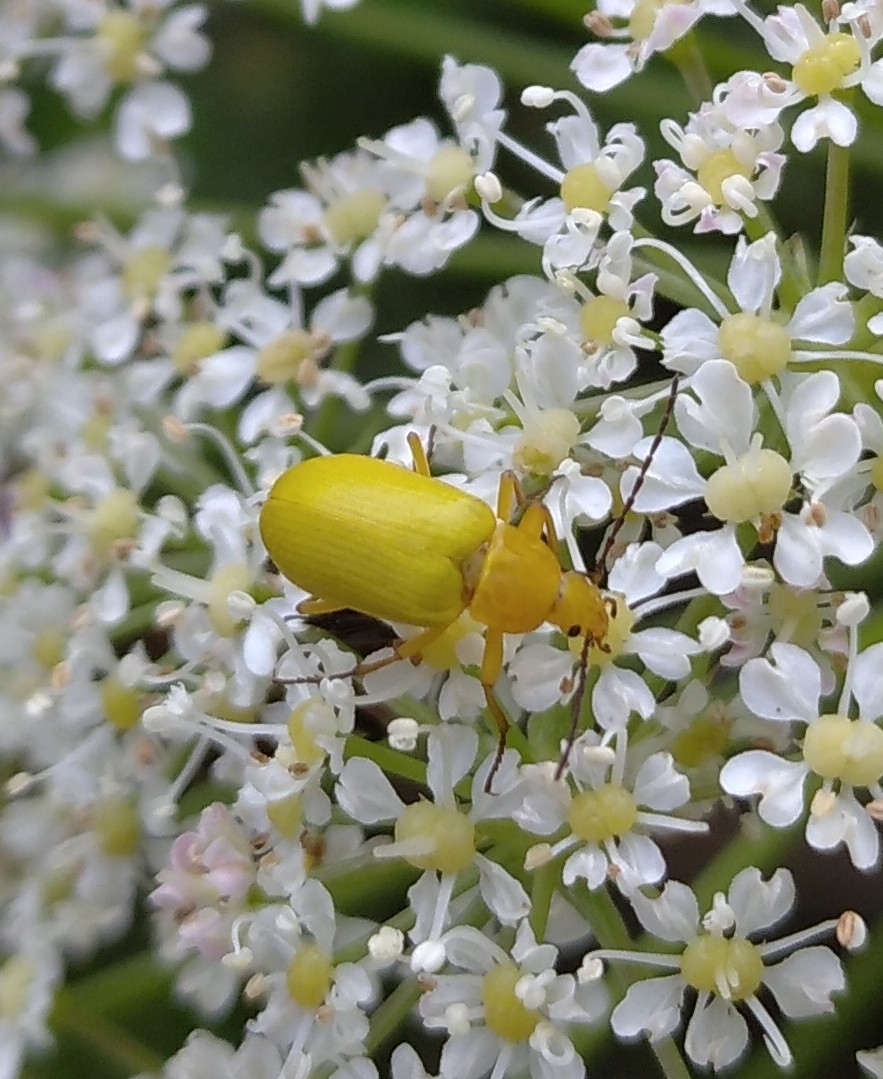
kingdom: Animalia
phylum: Arthropoda
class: Insecta
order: Coleoptera
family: Tenebrionidae
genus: Cteniopus
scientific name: Cteniopus sulphureus
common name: Sulphur beetle
